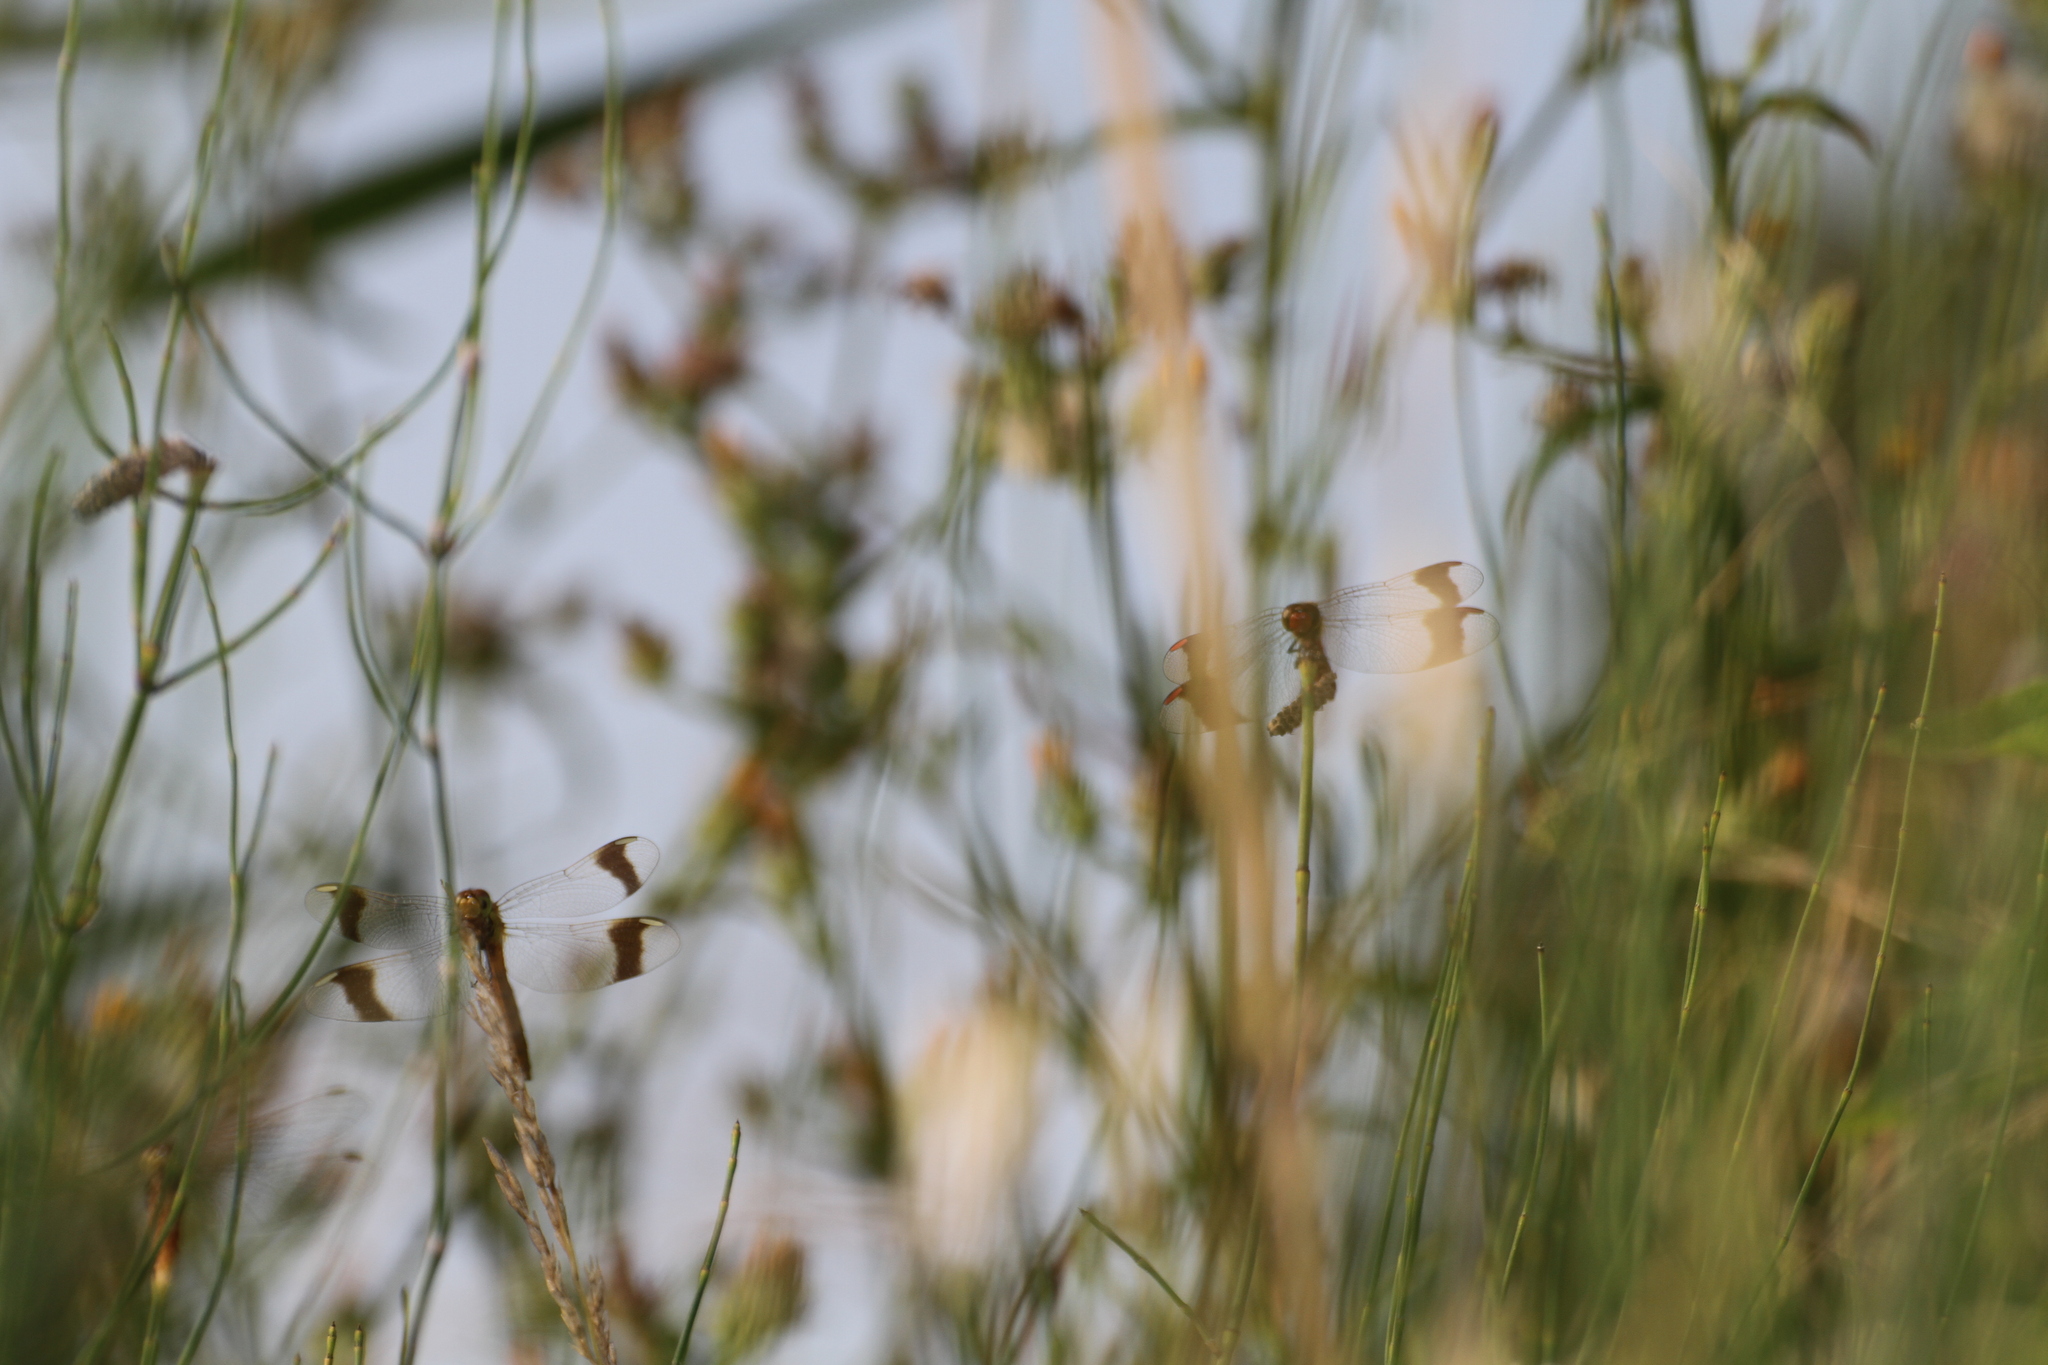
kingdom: Animalia
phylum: Arthropoda
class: Insecta
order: Odonata
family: Libellulidae
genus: Sympetrum
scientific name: Sympetrum pedemontanum
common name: Banded darter
